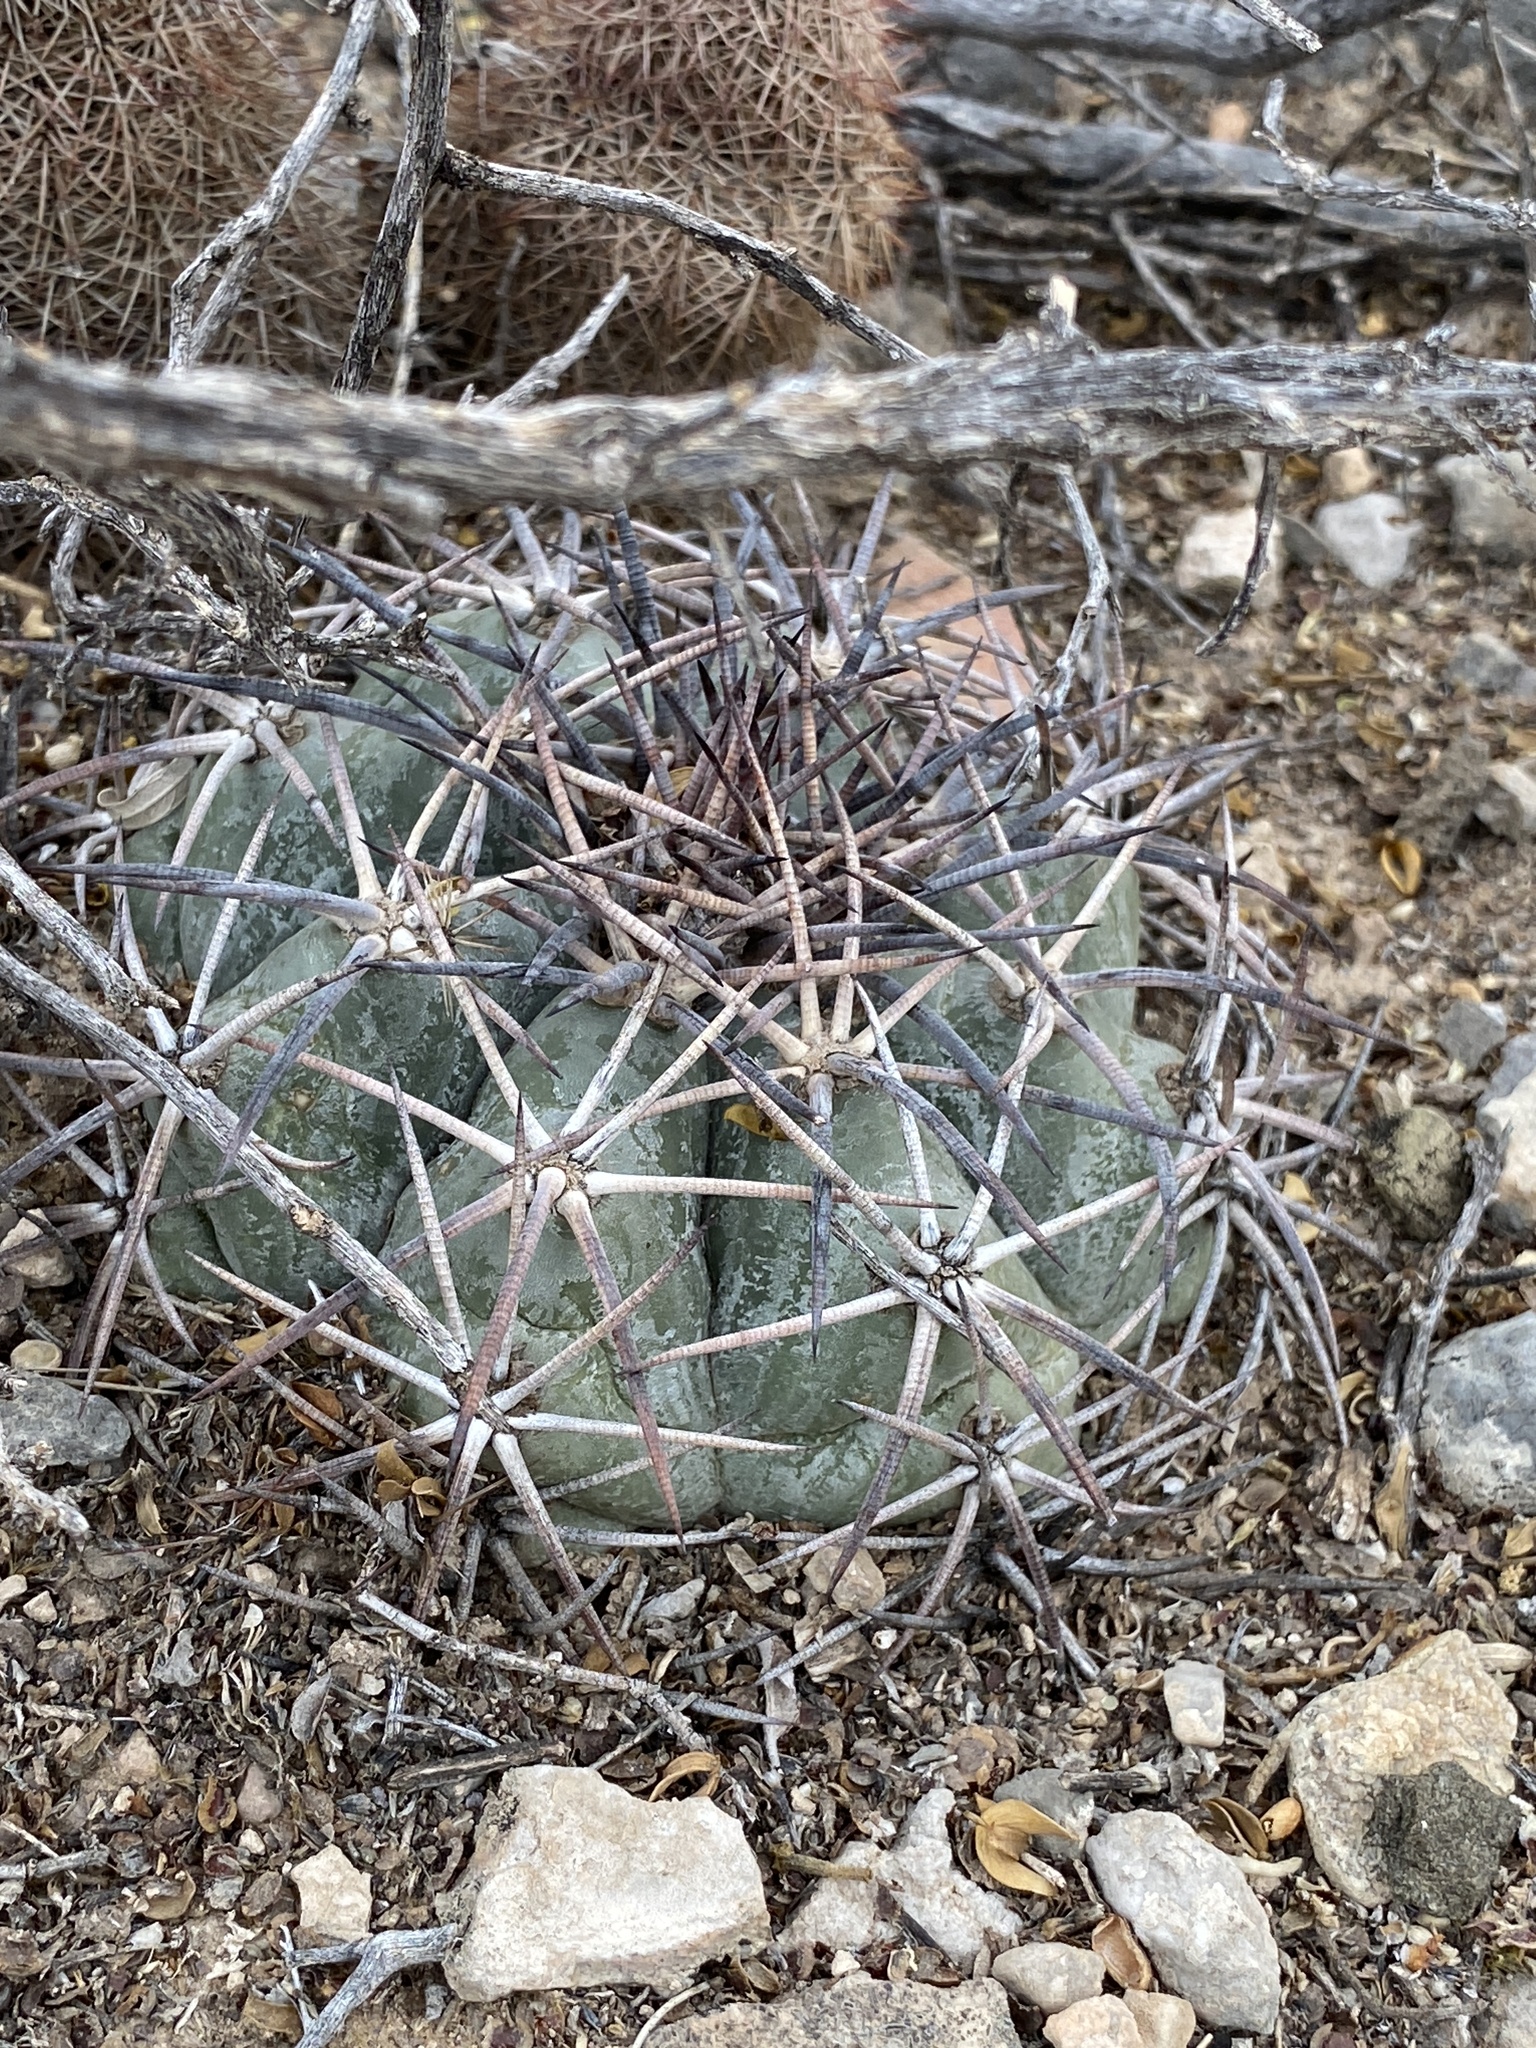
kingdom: Plantae
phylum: Tracheophyta
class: Magnoliopsida
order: Caryophyllales
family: Cactaceae
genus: Echinocactus
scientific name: Echinocactus horizonthalonius
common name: Devilshead
